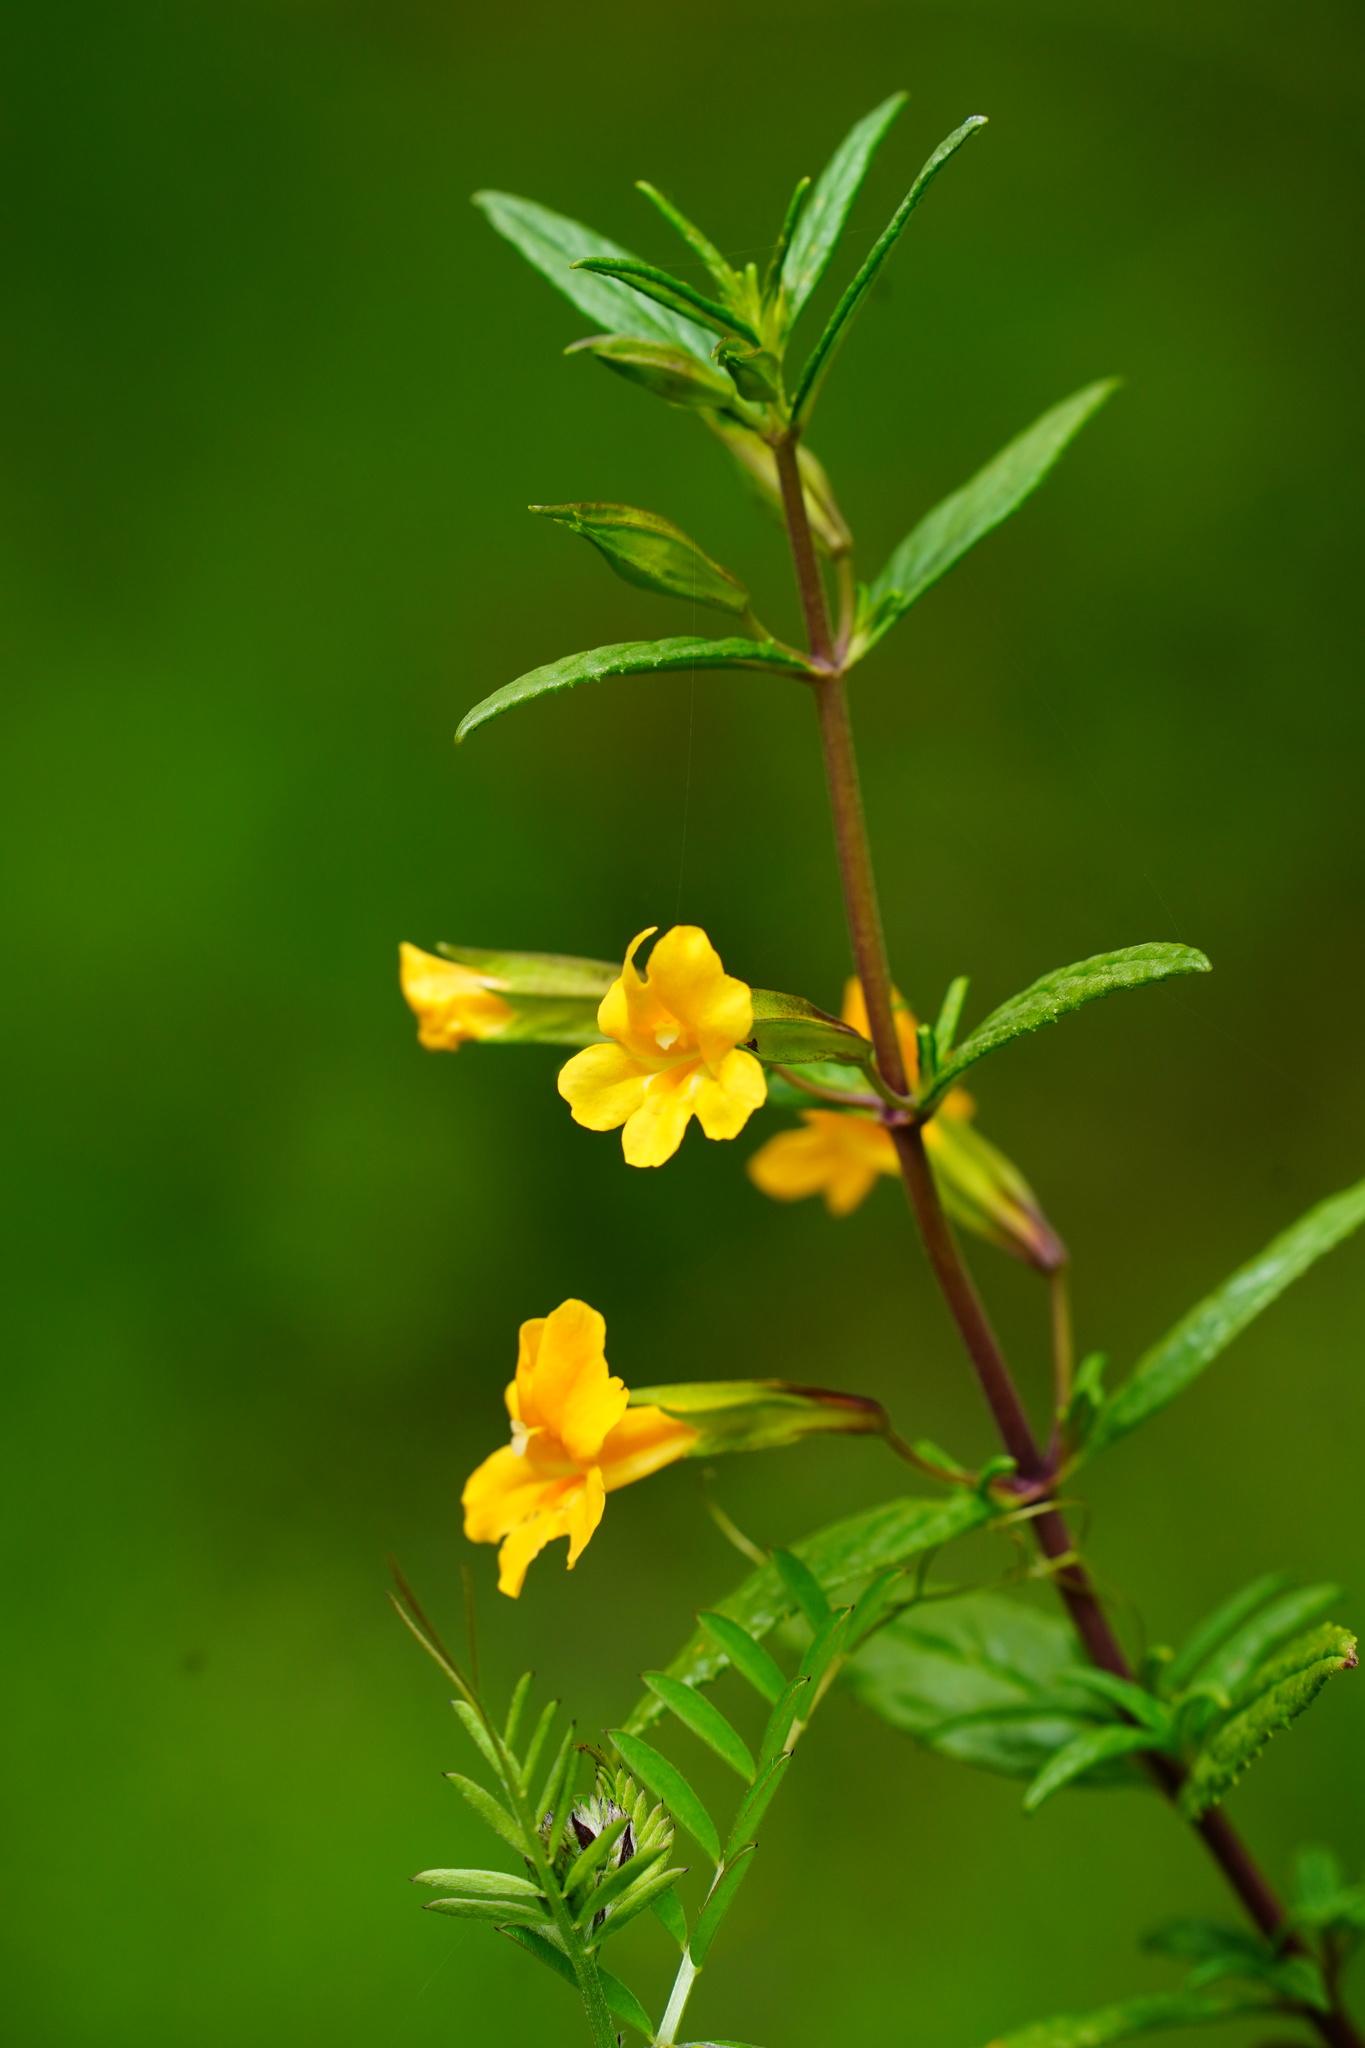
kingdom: Plantae
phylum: Tracheophyta
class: Magnoliopsida
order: Lamiales
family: Phrymaceae
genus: Diplacus
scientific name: Diplacus aurantiacus
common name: Bush monkey-flower
